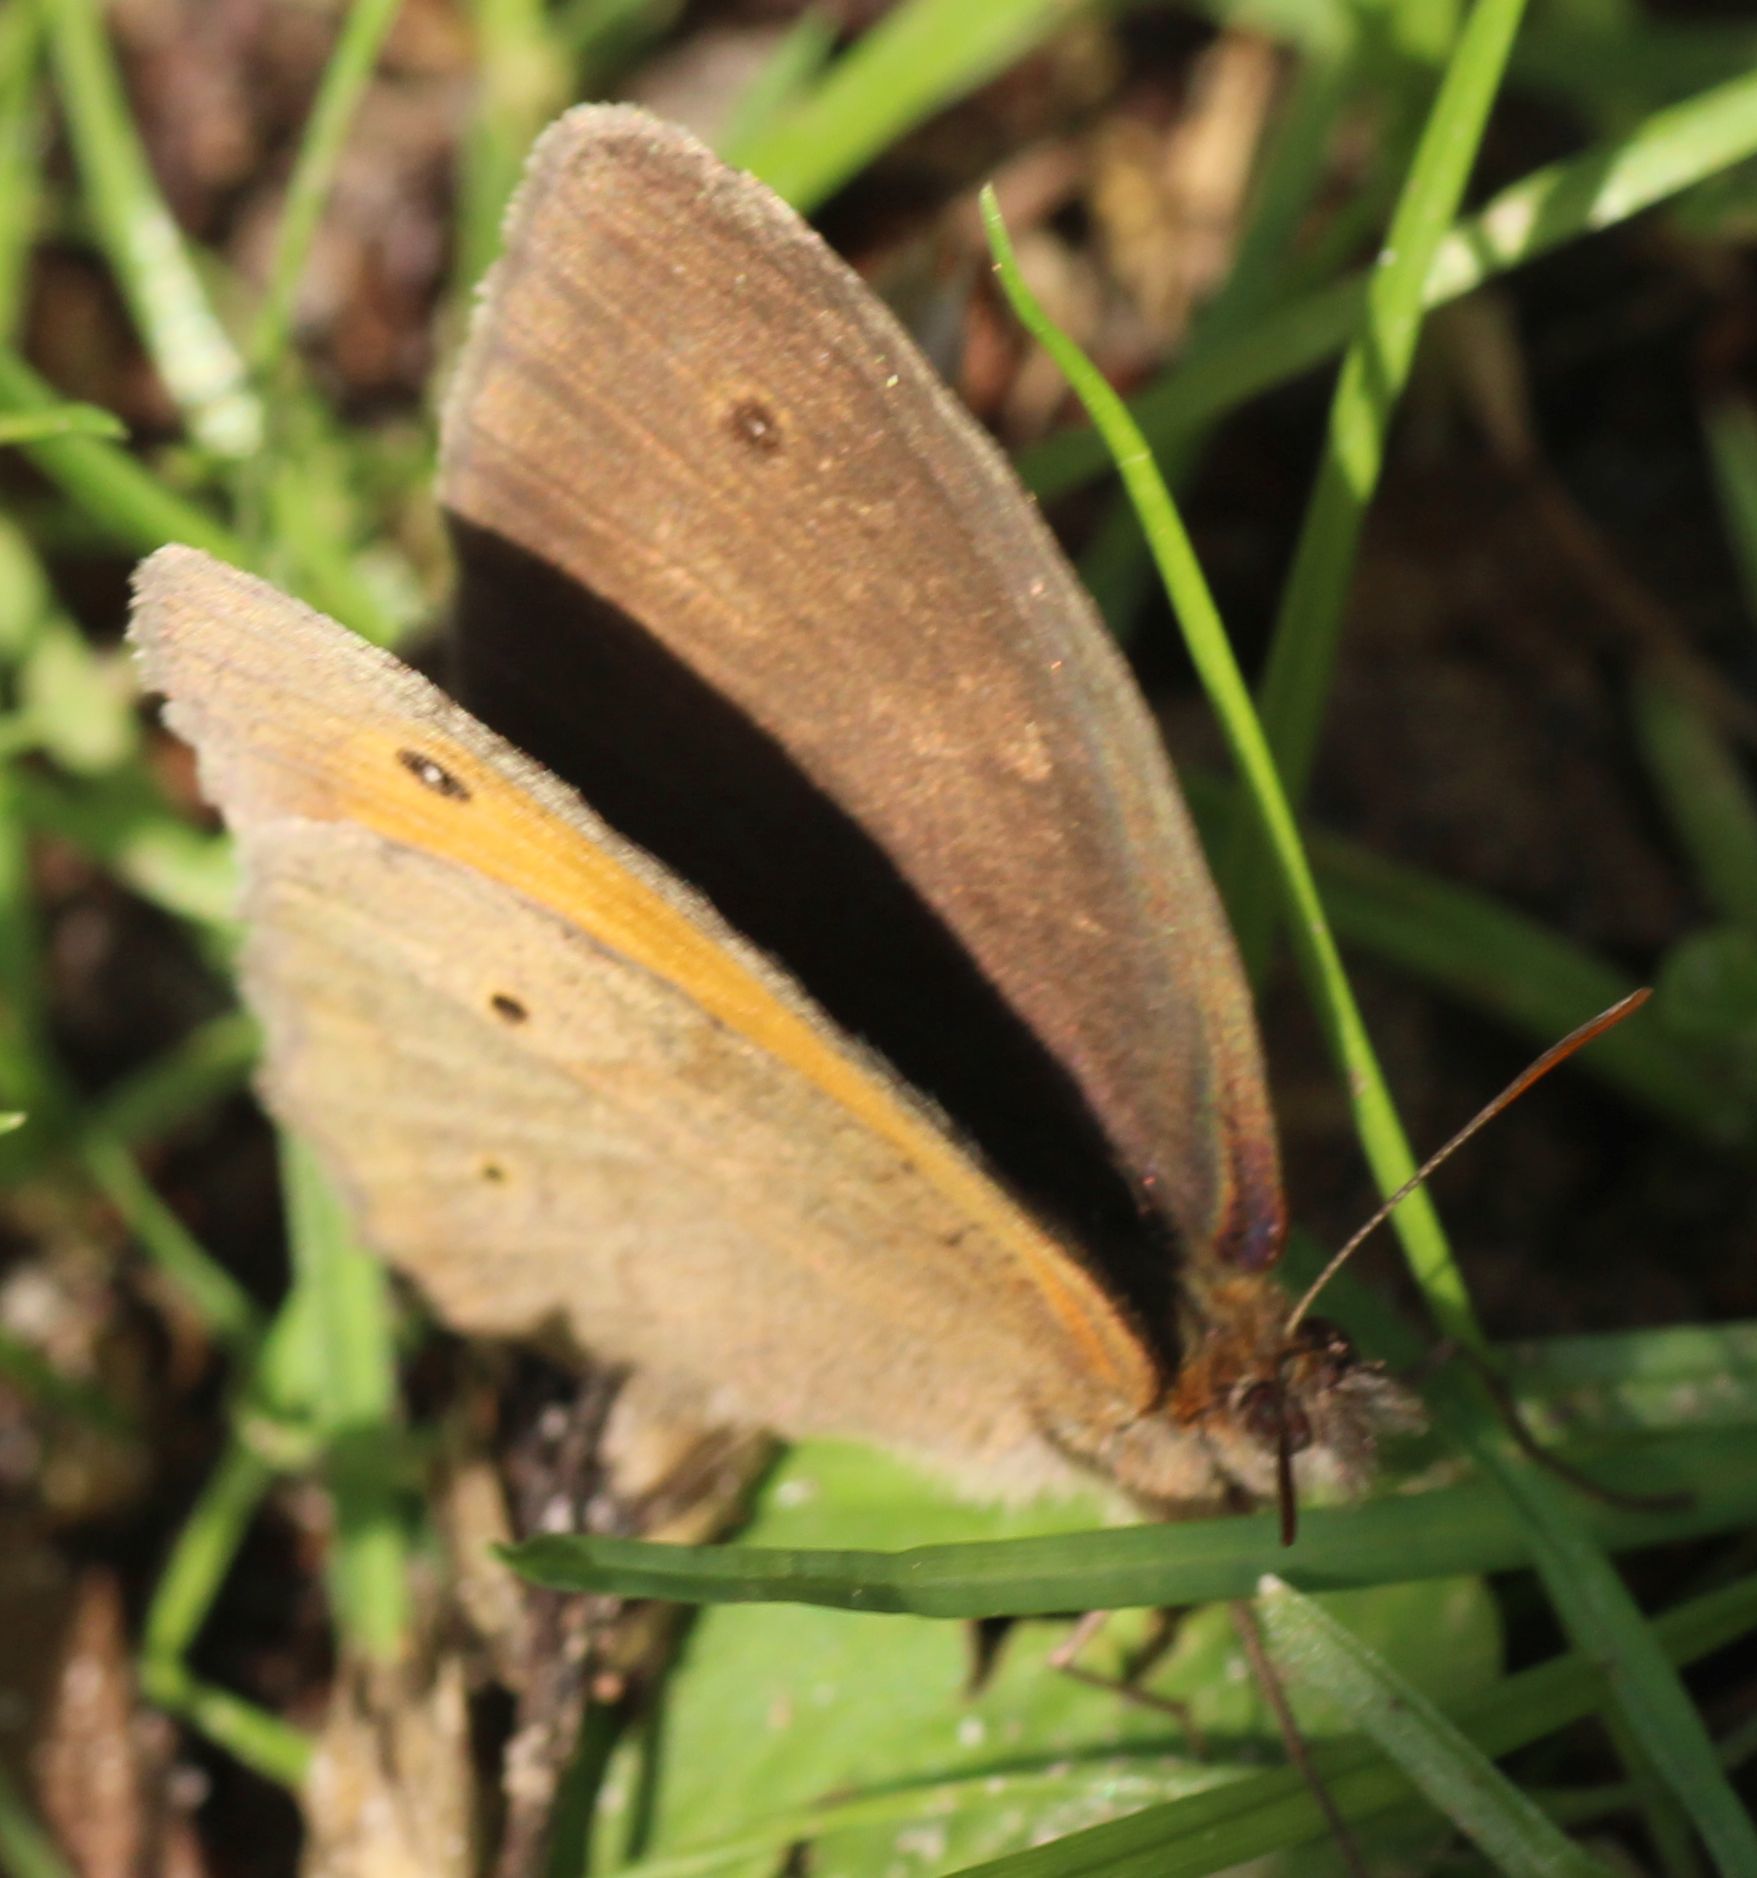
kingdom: Animalia
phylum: Arthropoda
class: Insecta
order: Lepidoptera
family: Nymphalidae
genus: Maniola
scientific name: Maniola jurtina
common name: Meadow brown
